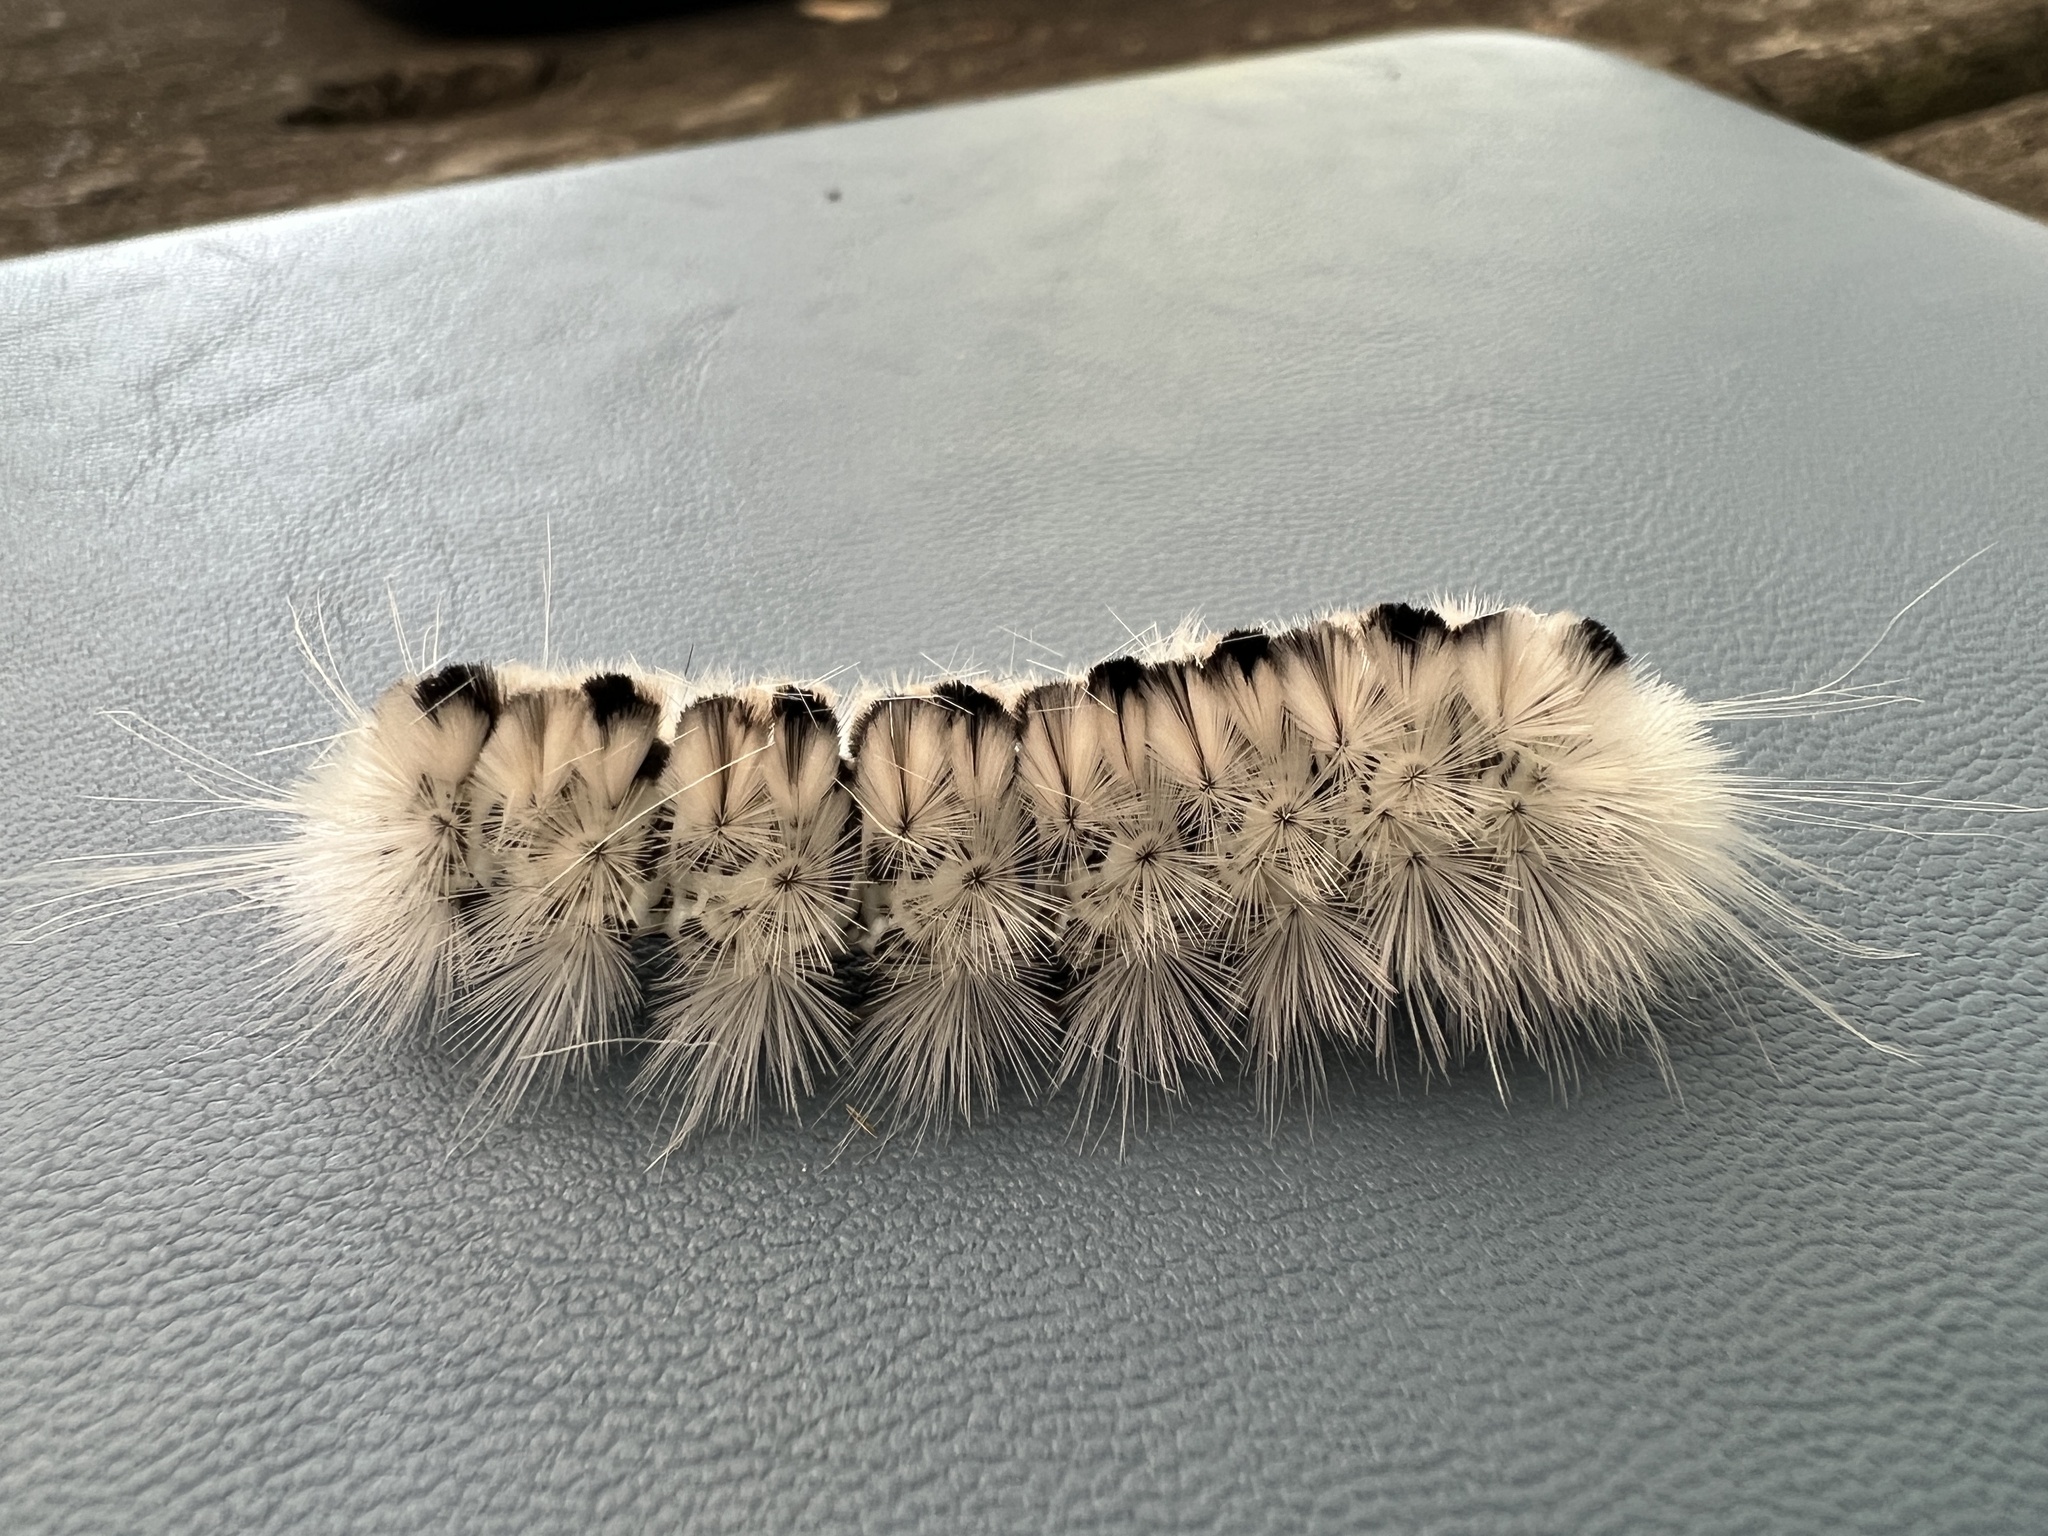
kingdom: Animalia
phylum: Arthropoda
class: Insecta
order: Lepidoptera
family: Erebidae
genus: Lophocampa
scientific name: Lophocampa caryae
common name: Hickory tussock moth
